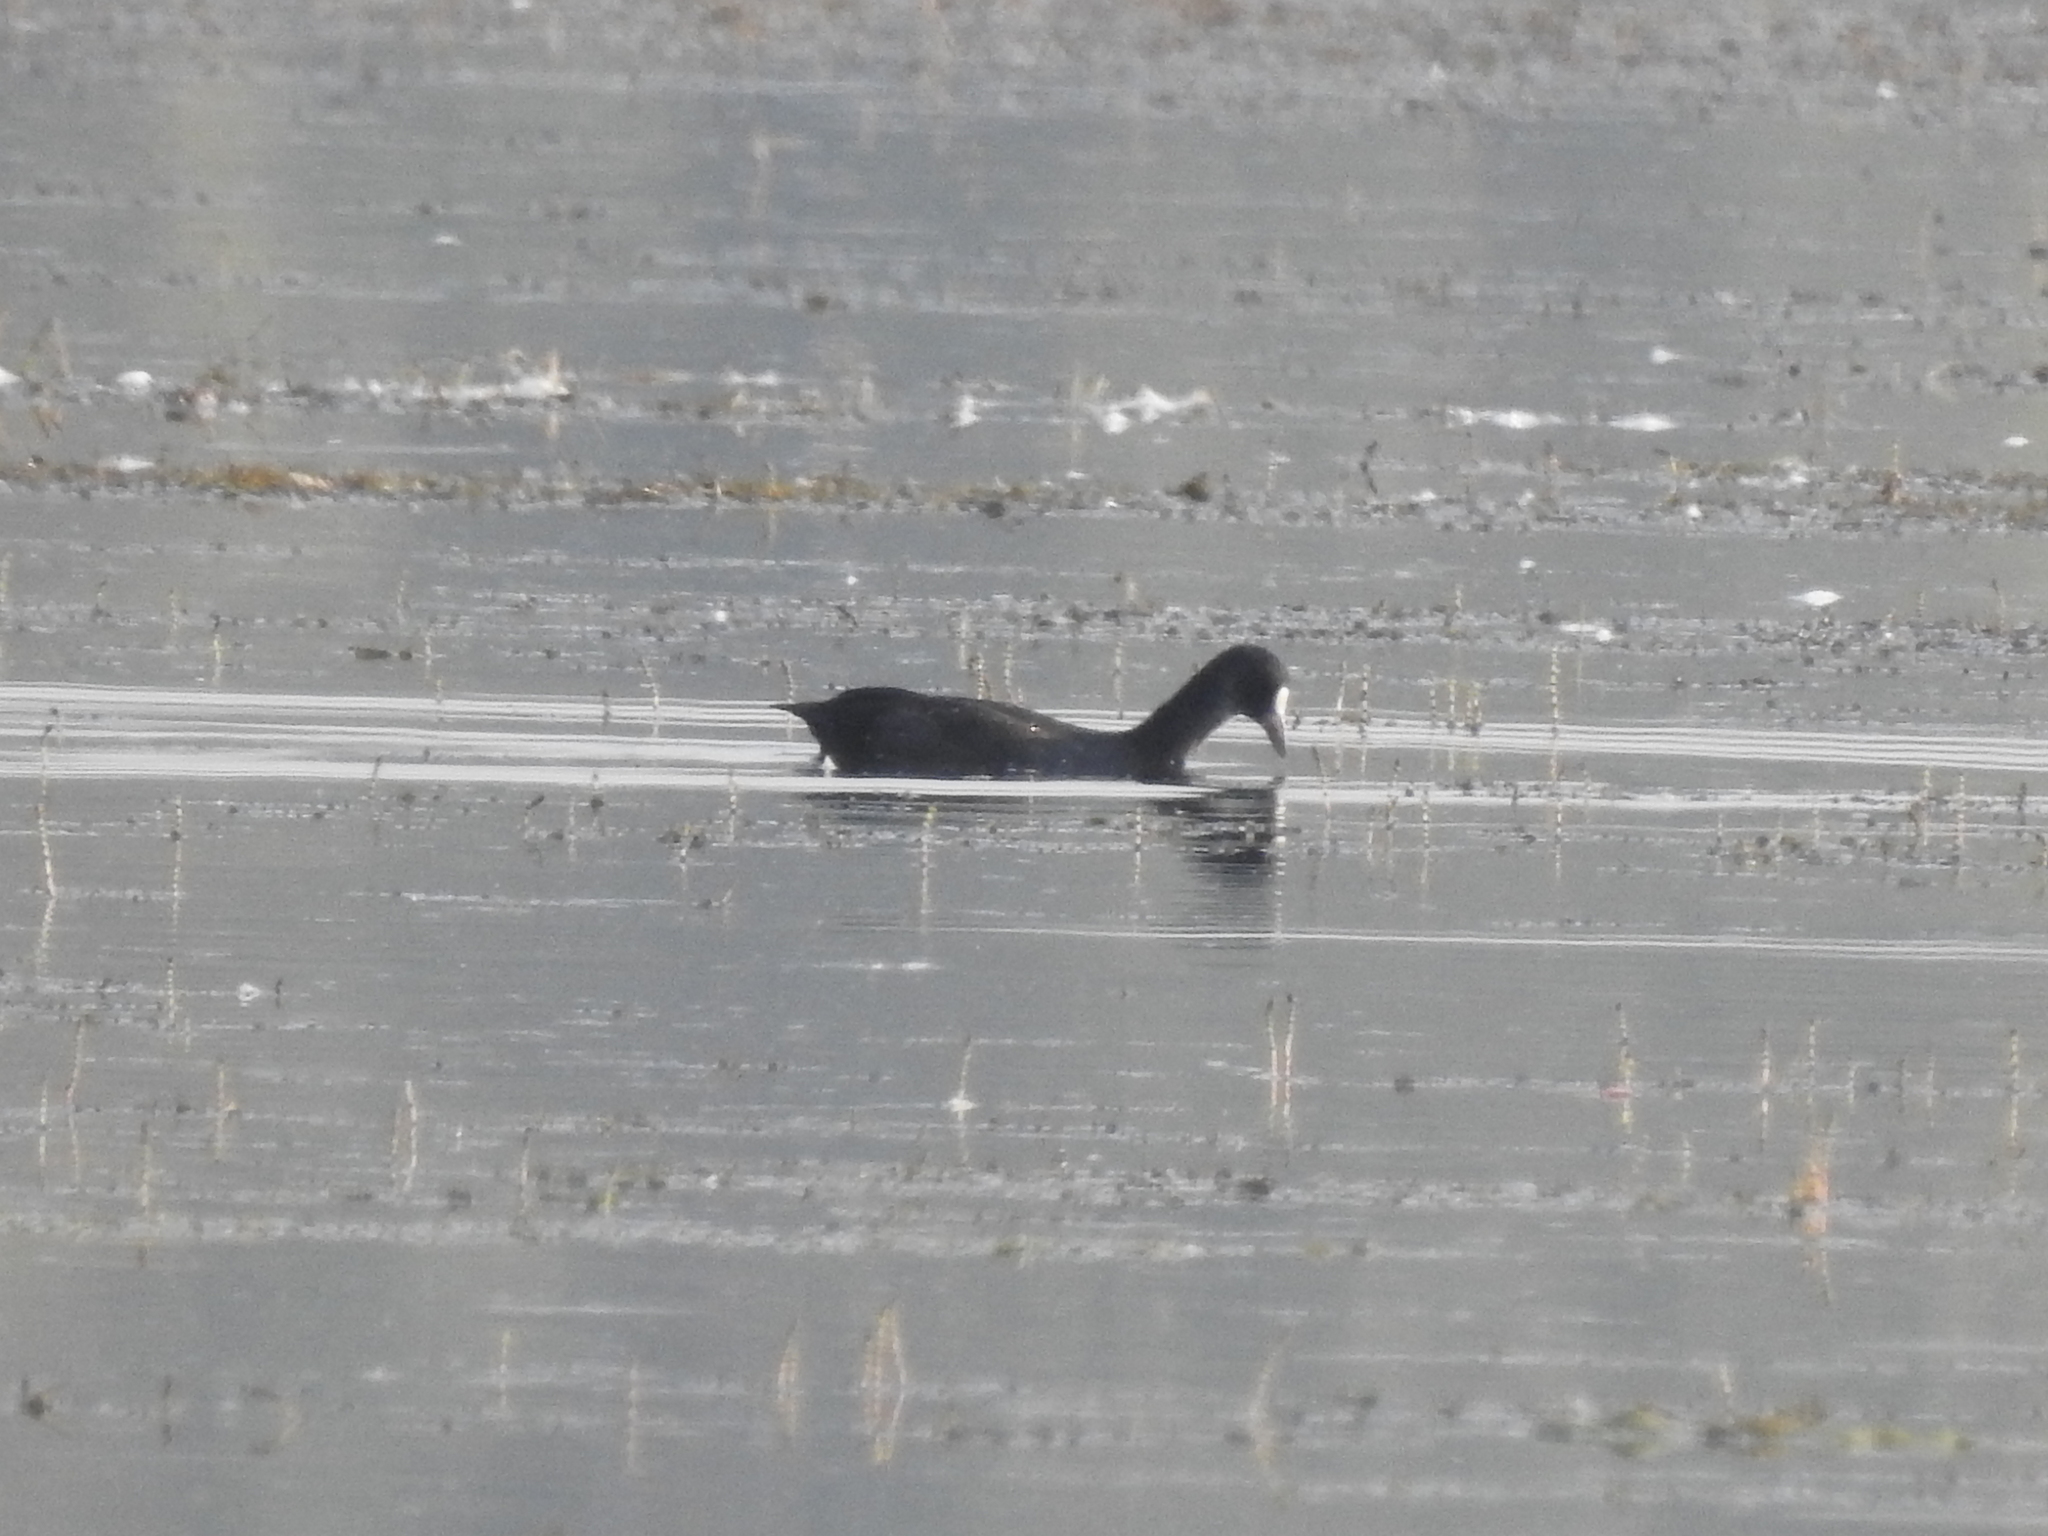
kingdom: Animalia
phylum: Chordata
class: Aves
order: Gruiformes
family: Rallidae
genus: Fulica
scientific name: Fulica atra
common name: Eurasian coot
